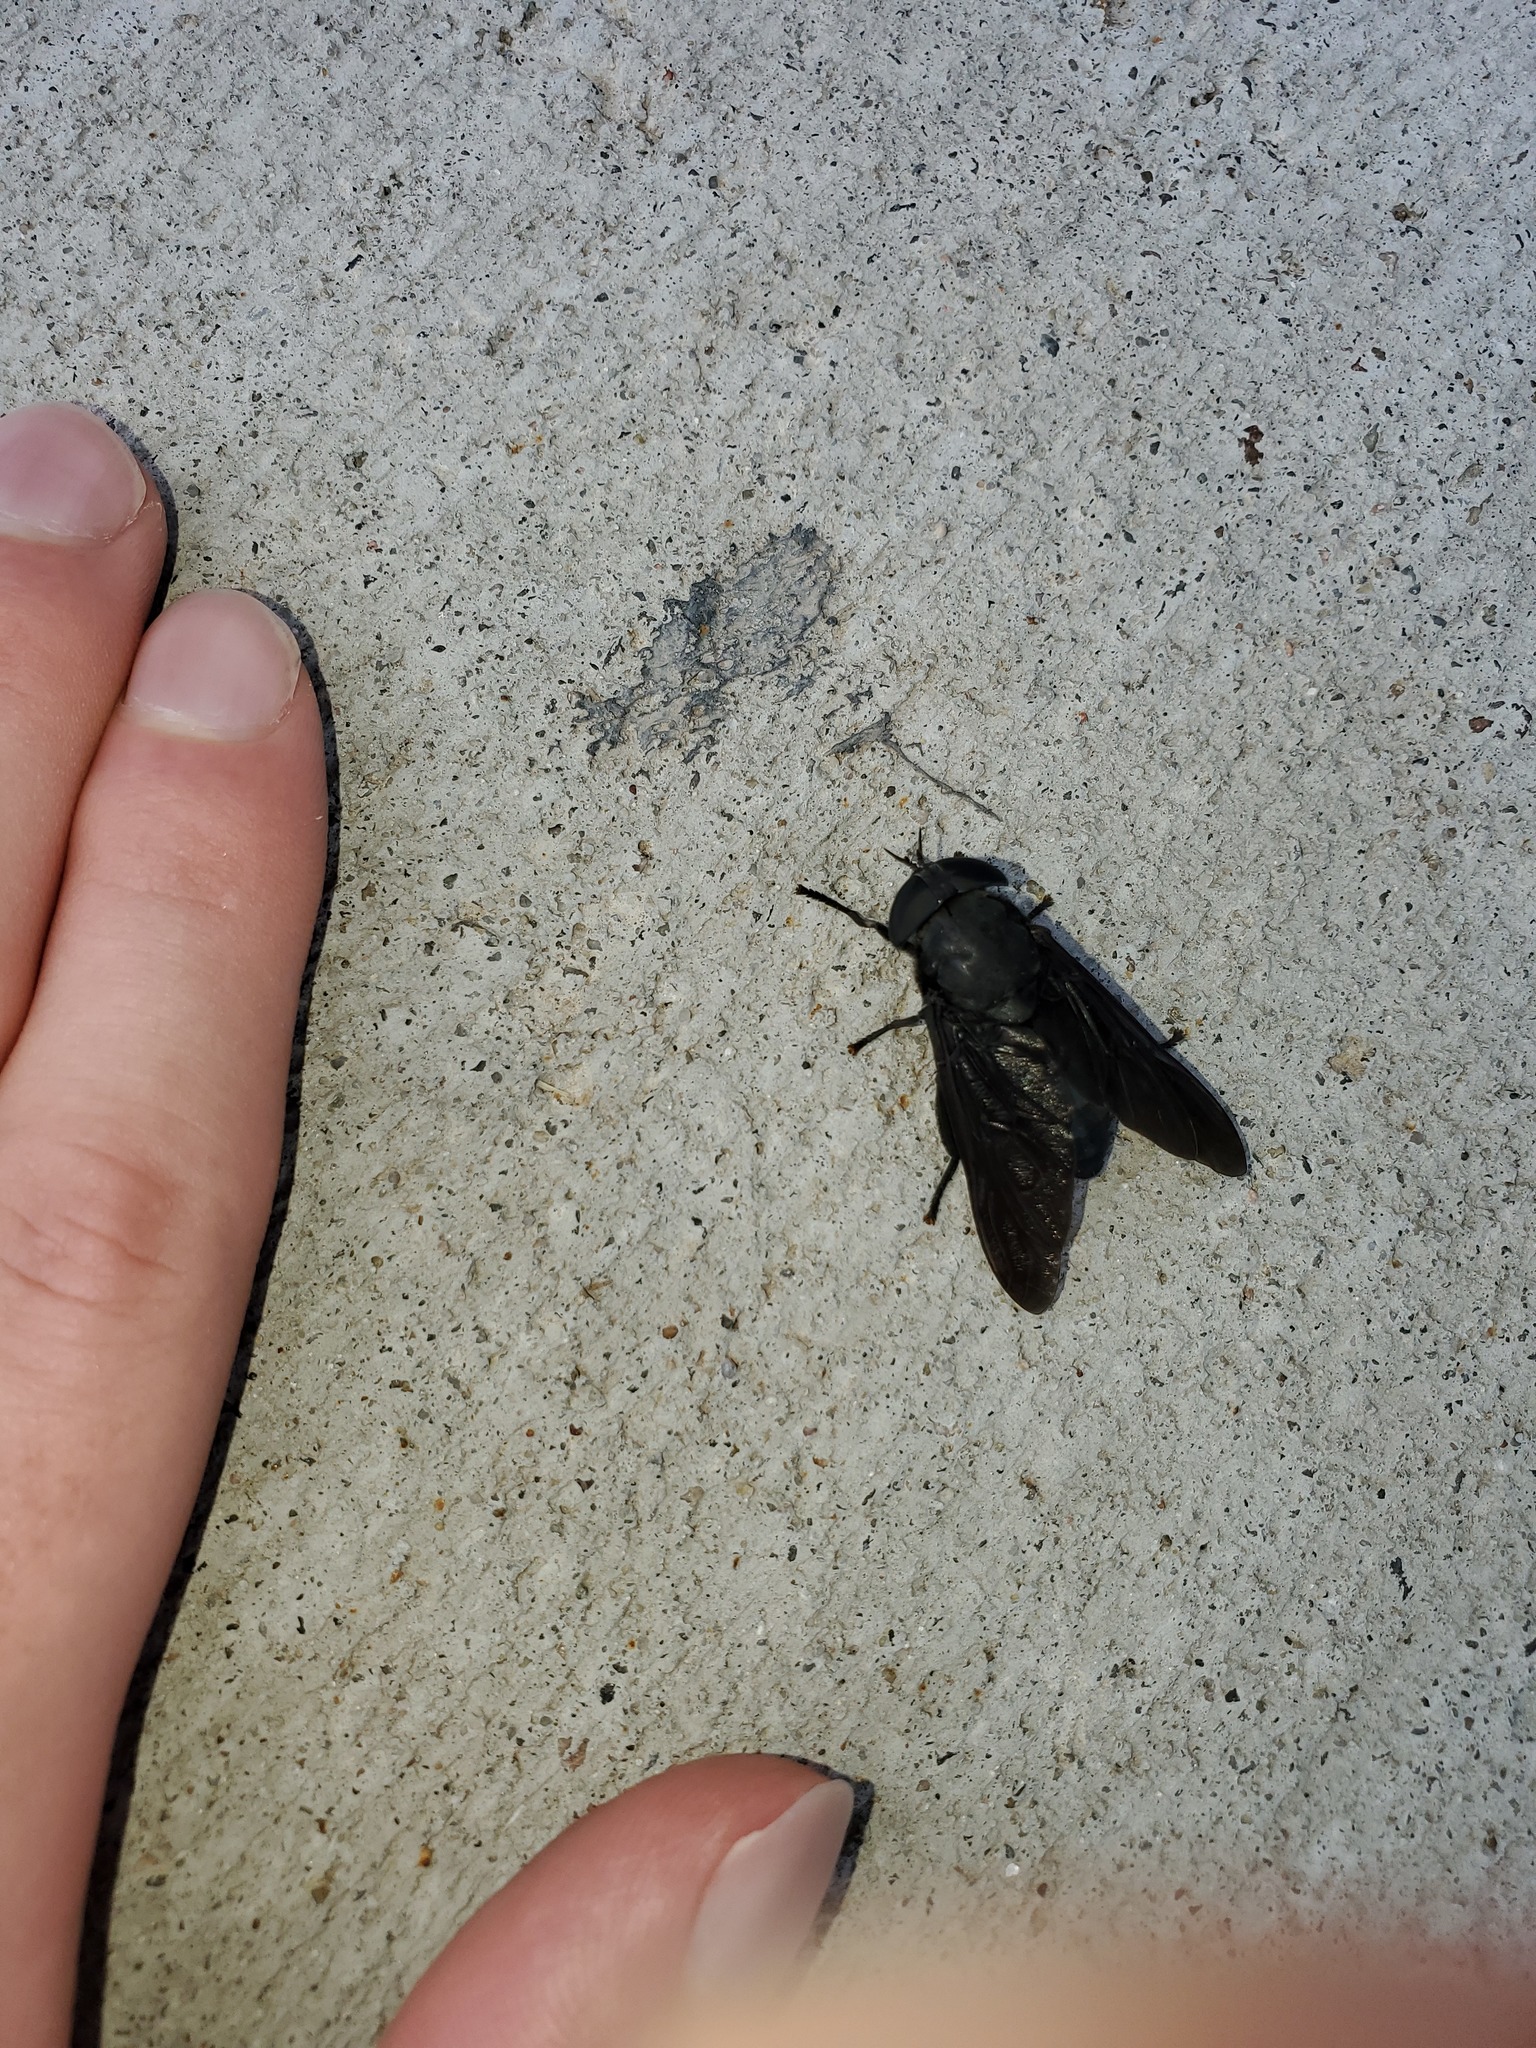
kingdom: Animalia
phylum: Arthropoda
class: Insecta
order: Diptera
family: Tabanidae
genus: Tabanus
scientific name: Tabanus atratus
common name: Black horse fly
